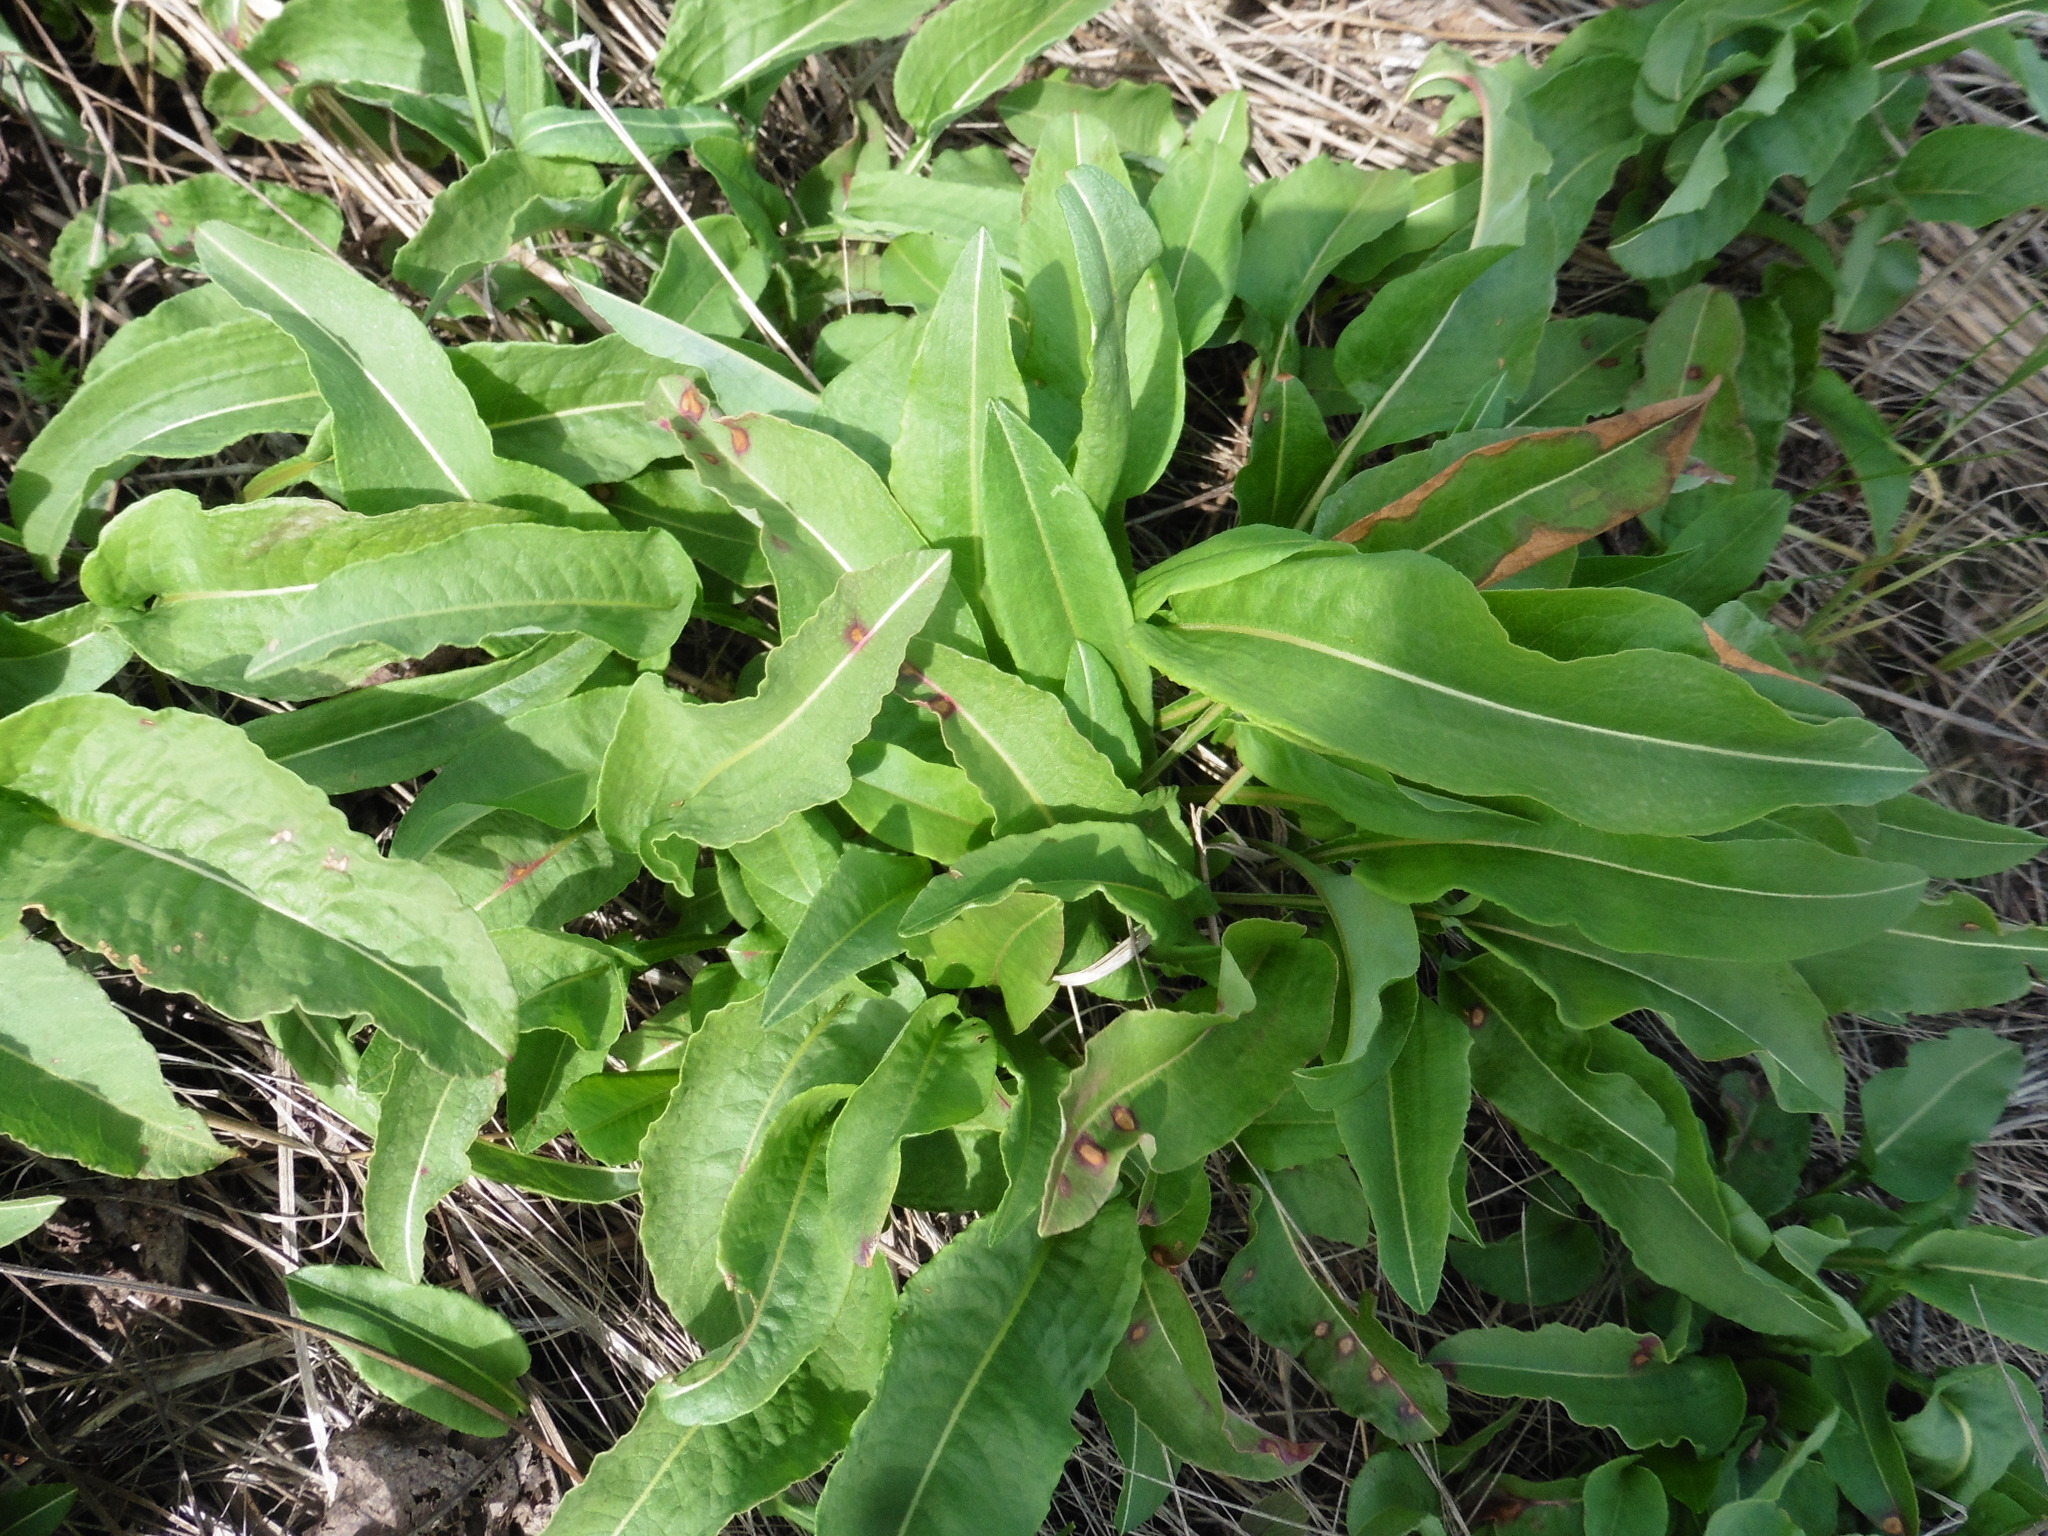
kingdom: Plantae
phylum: Tracheophyta
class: Magnoliopsida
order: Caryophyllales
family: Polygonaceae
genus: Bistorta
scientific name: Bistorta officinalis
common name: Common bistort
